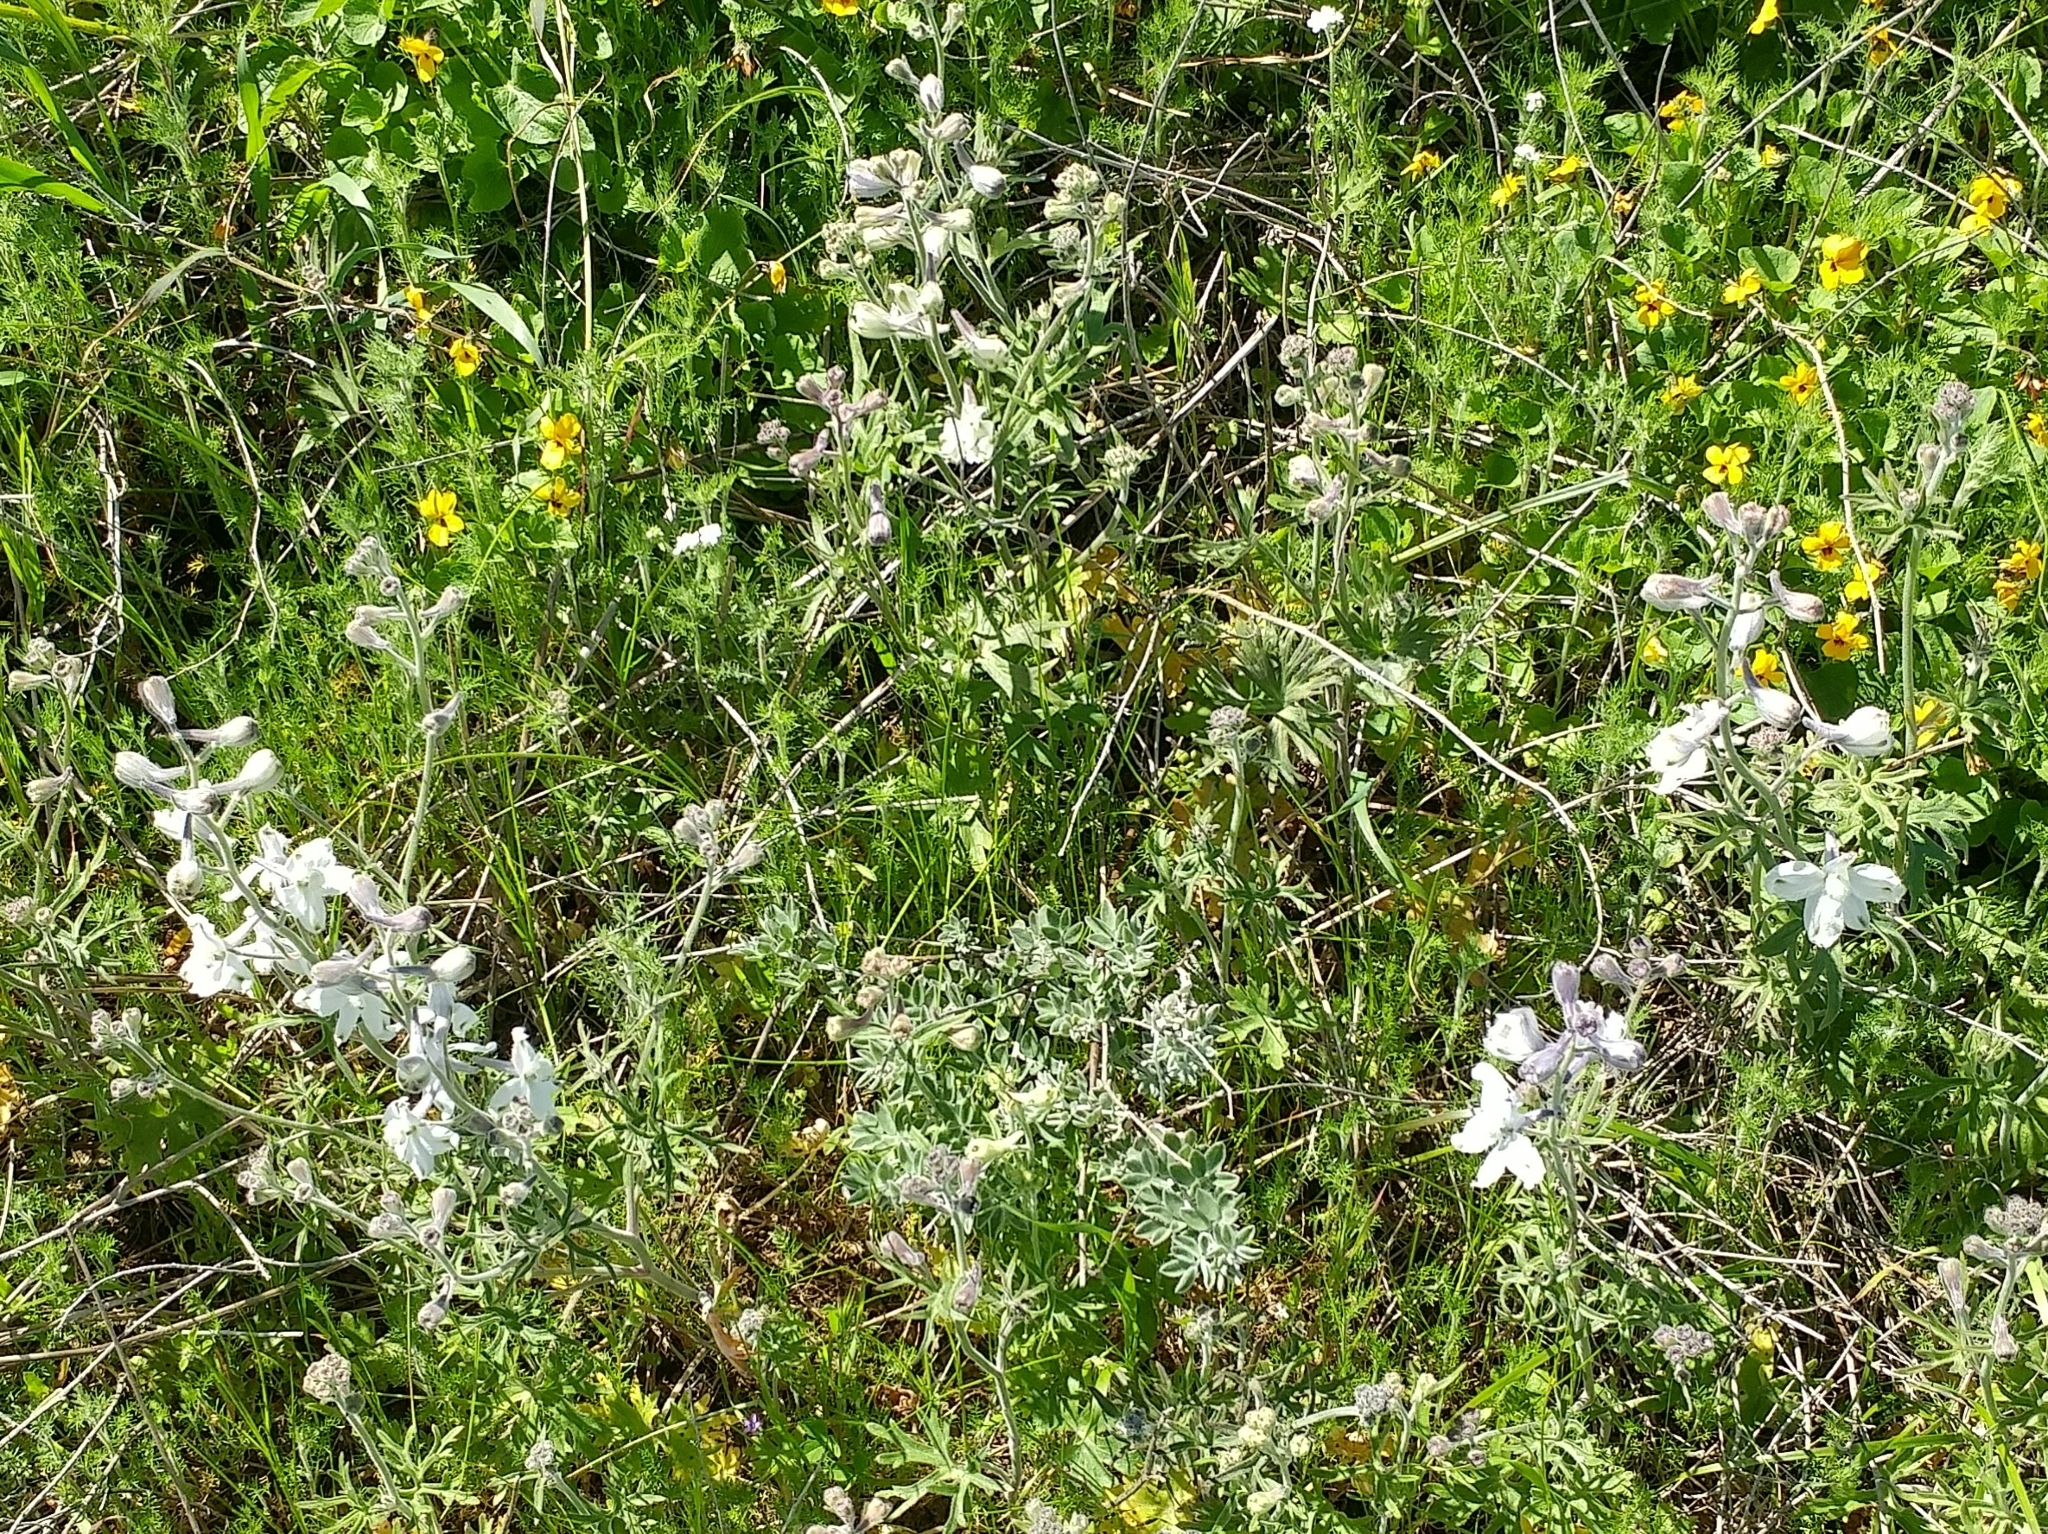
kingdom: Plantae
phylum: Tracheophyta
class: Magnoliopsida
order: Ranunculales
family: Ranunculaceae
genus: Delphinium
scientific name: Delphinium variegatum
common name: Royal larkspur
